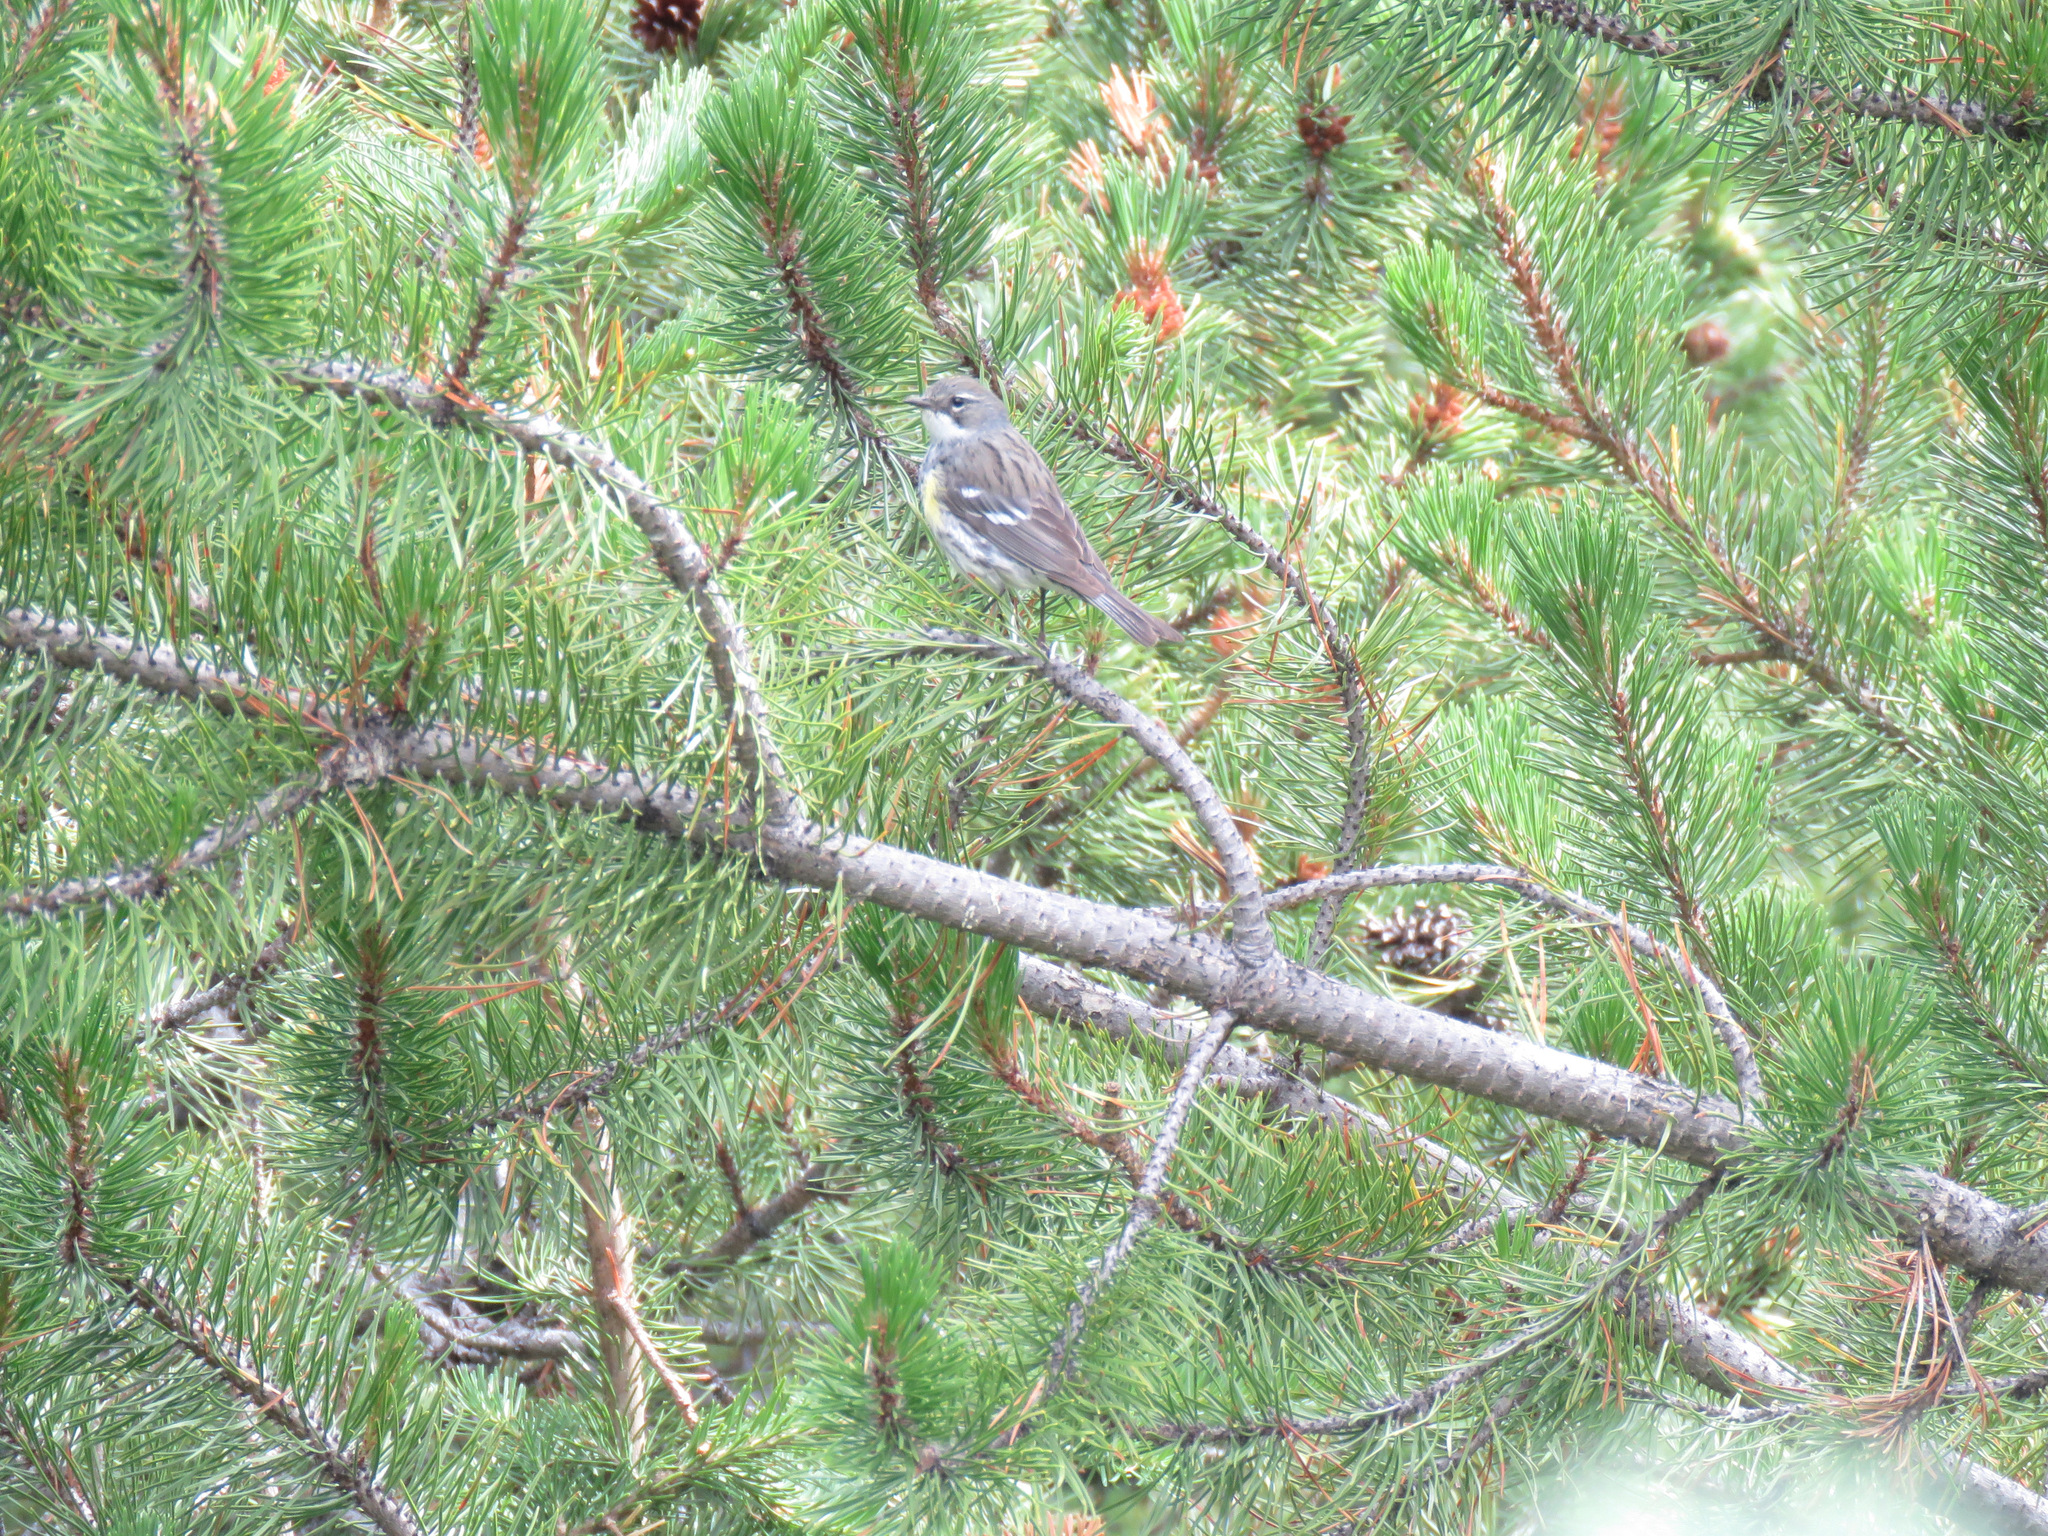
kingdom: Animalia
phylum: Chordata
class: Aves
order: Passeriformes
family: Parulidae
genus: Setophaga
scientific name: Setophaga coronata
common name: Myrtle warbler
